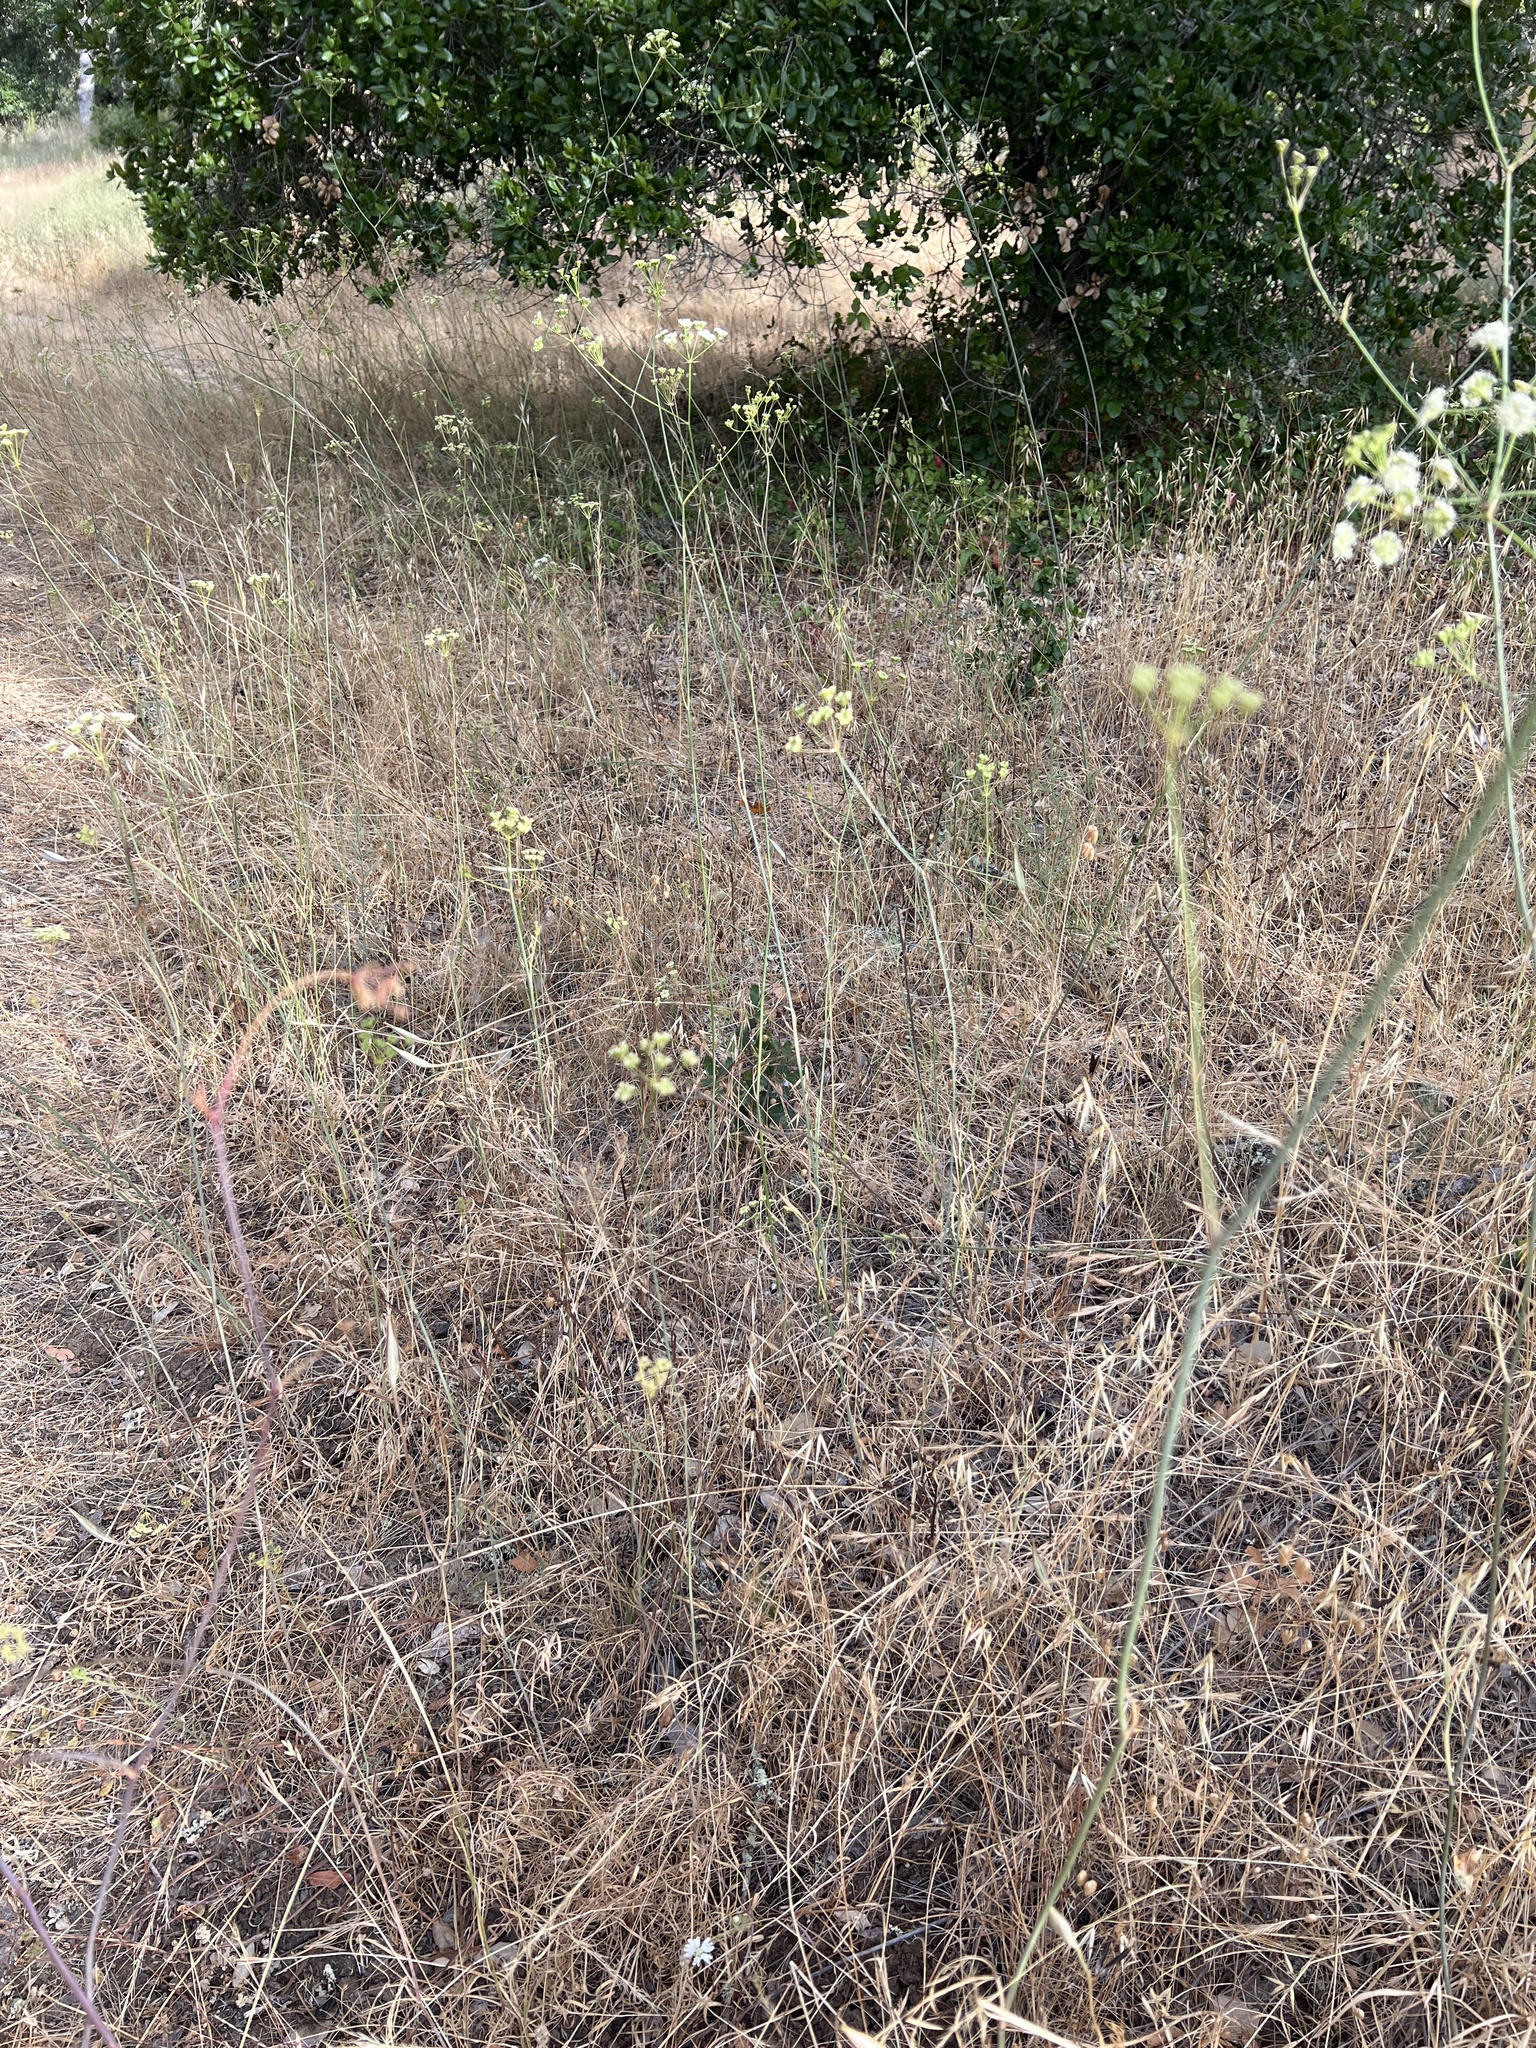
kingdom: Plantae
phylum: Tracheophyta
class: Magnoliopsida
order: Apiales
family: Apiaceae
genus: Perideridia
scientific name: Perideridia kelloggii
